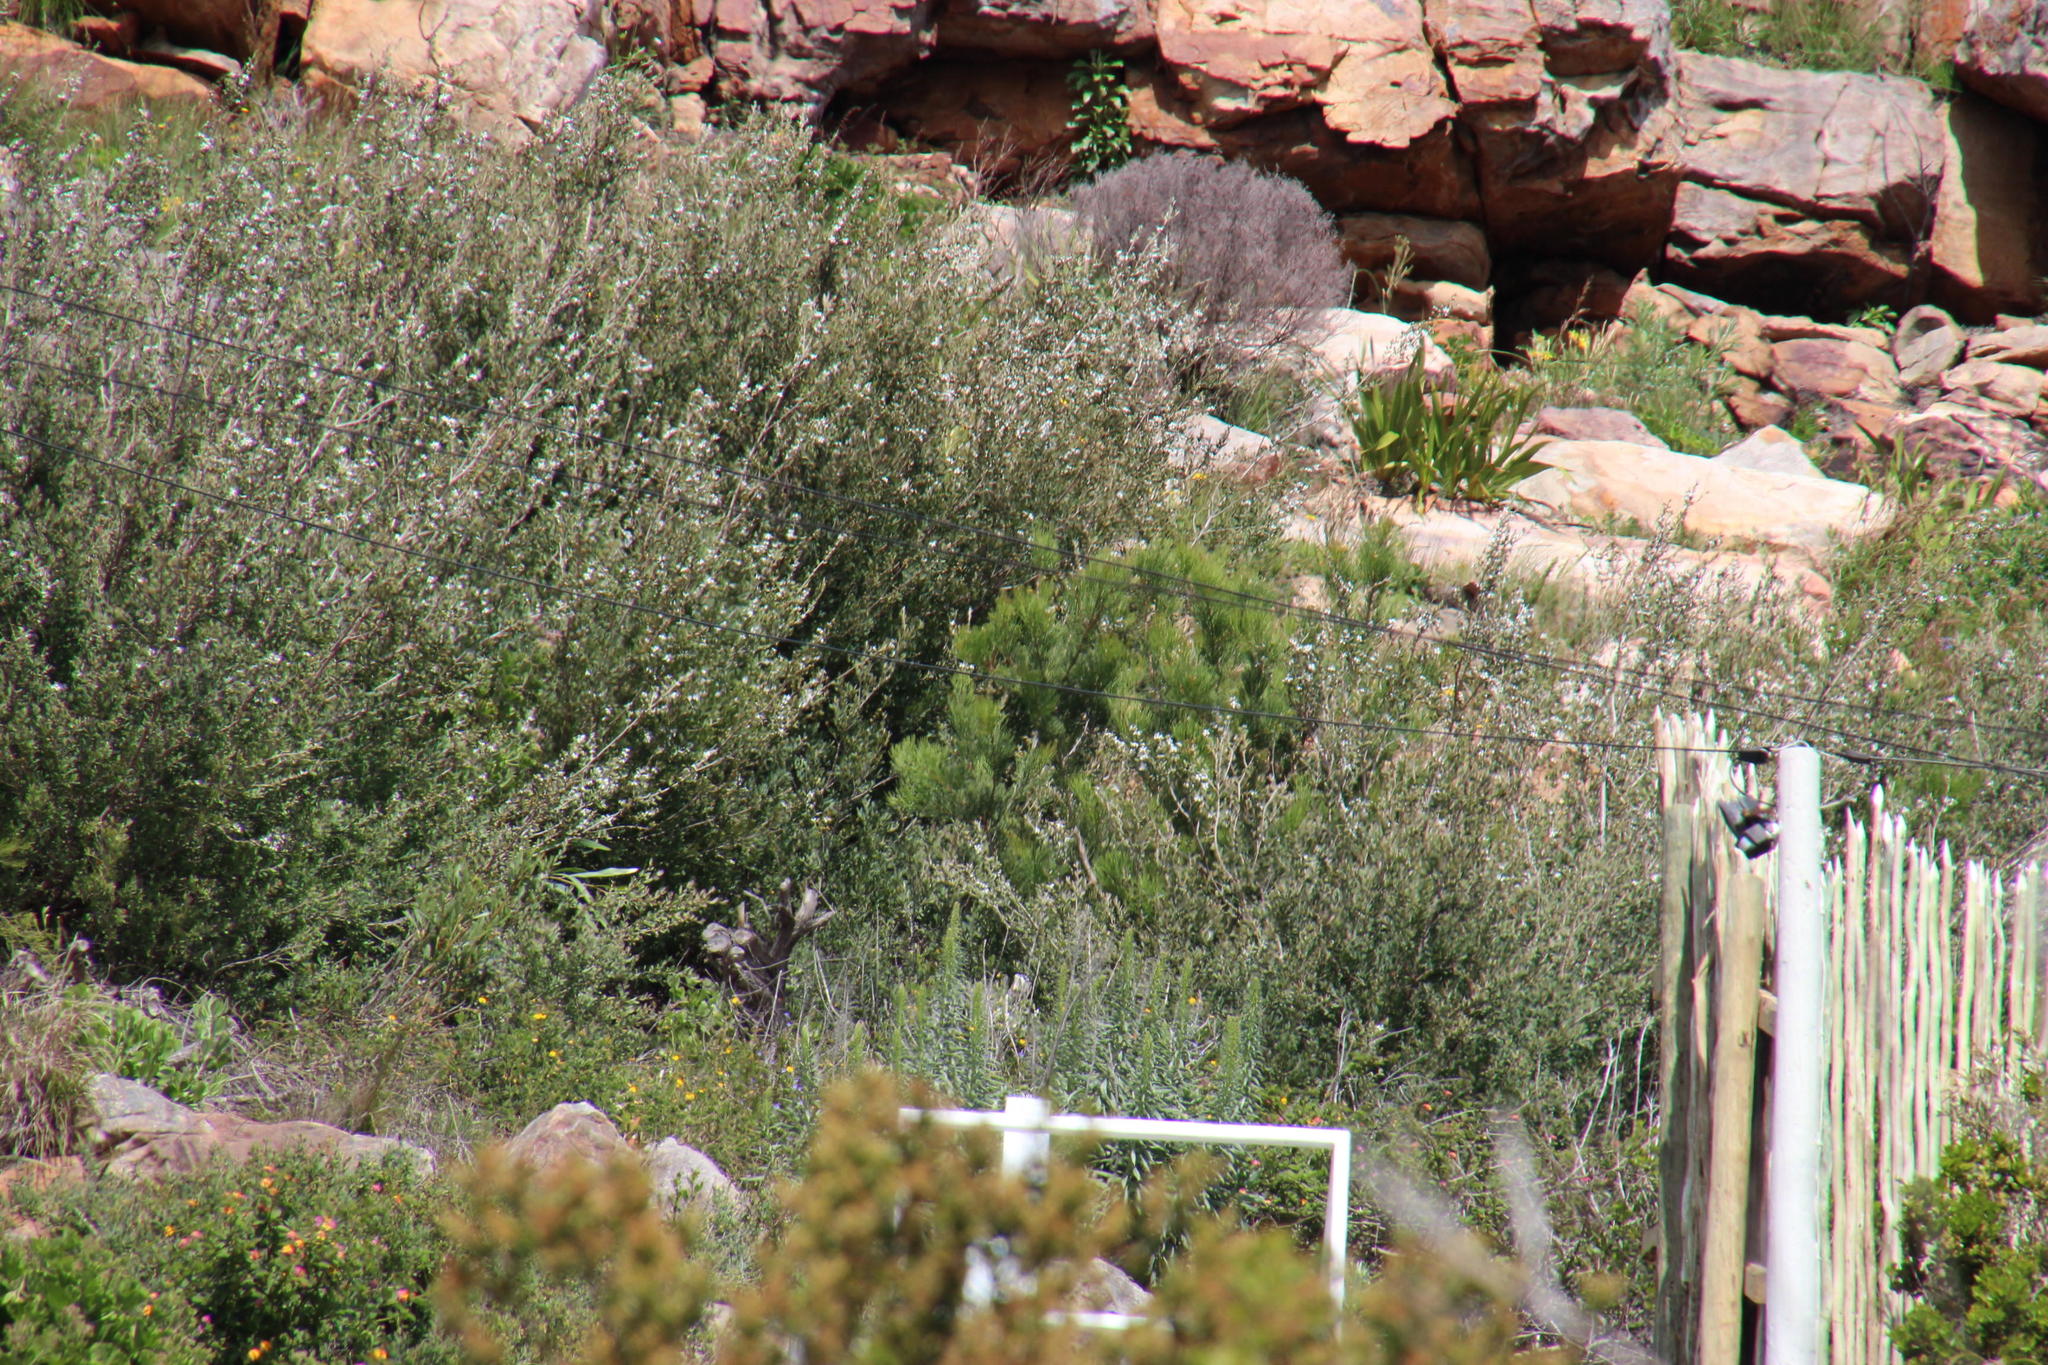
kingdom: Plantae
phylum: Tracheophyta
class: Magnoliopsida
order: Proteales
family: Proteaceae
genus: Hakea
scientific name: Hakea drupacea
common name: Sweet hakea
